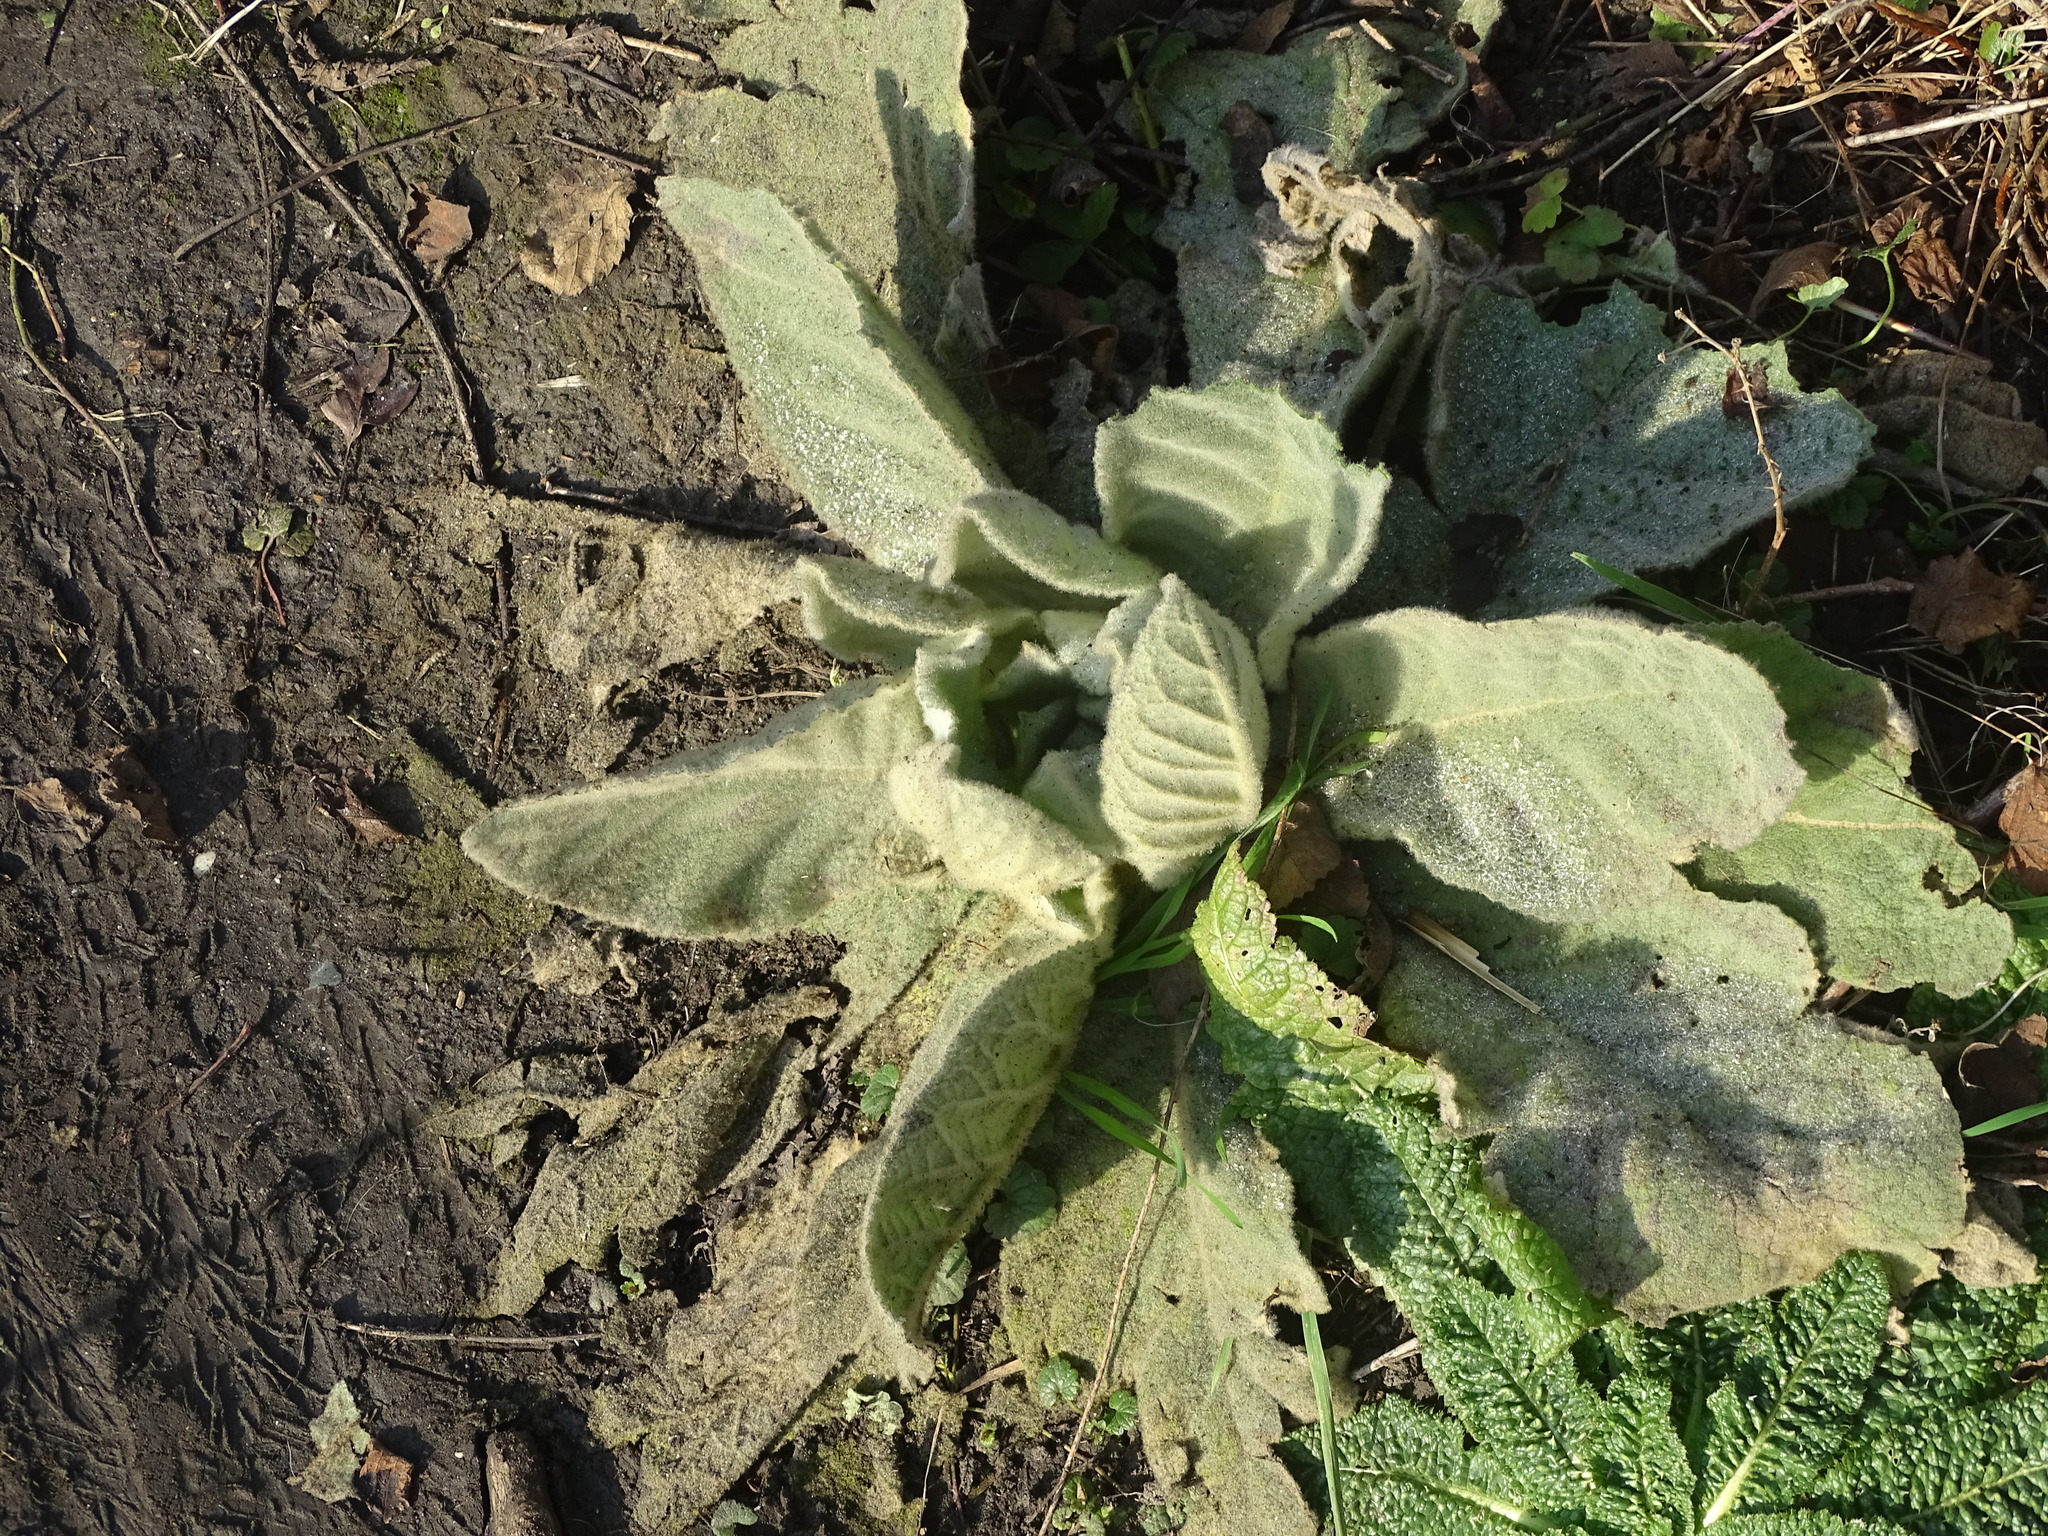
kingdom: Plantae
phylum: Tracheophyta
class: Magnoliopsida
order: Lamiales
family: Scrophulariaceae
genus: Verbascum
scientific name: Verbascum thapsus
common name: Common mullein
